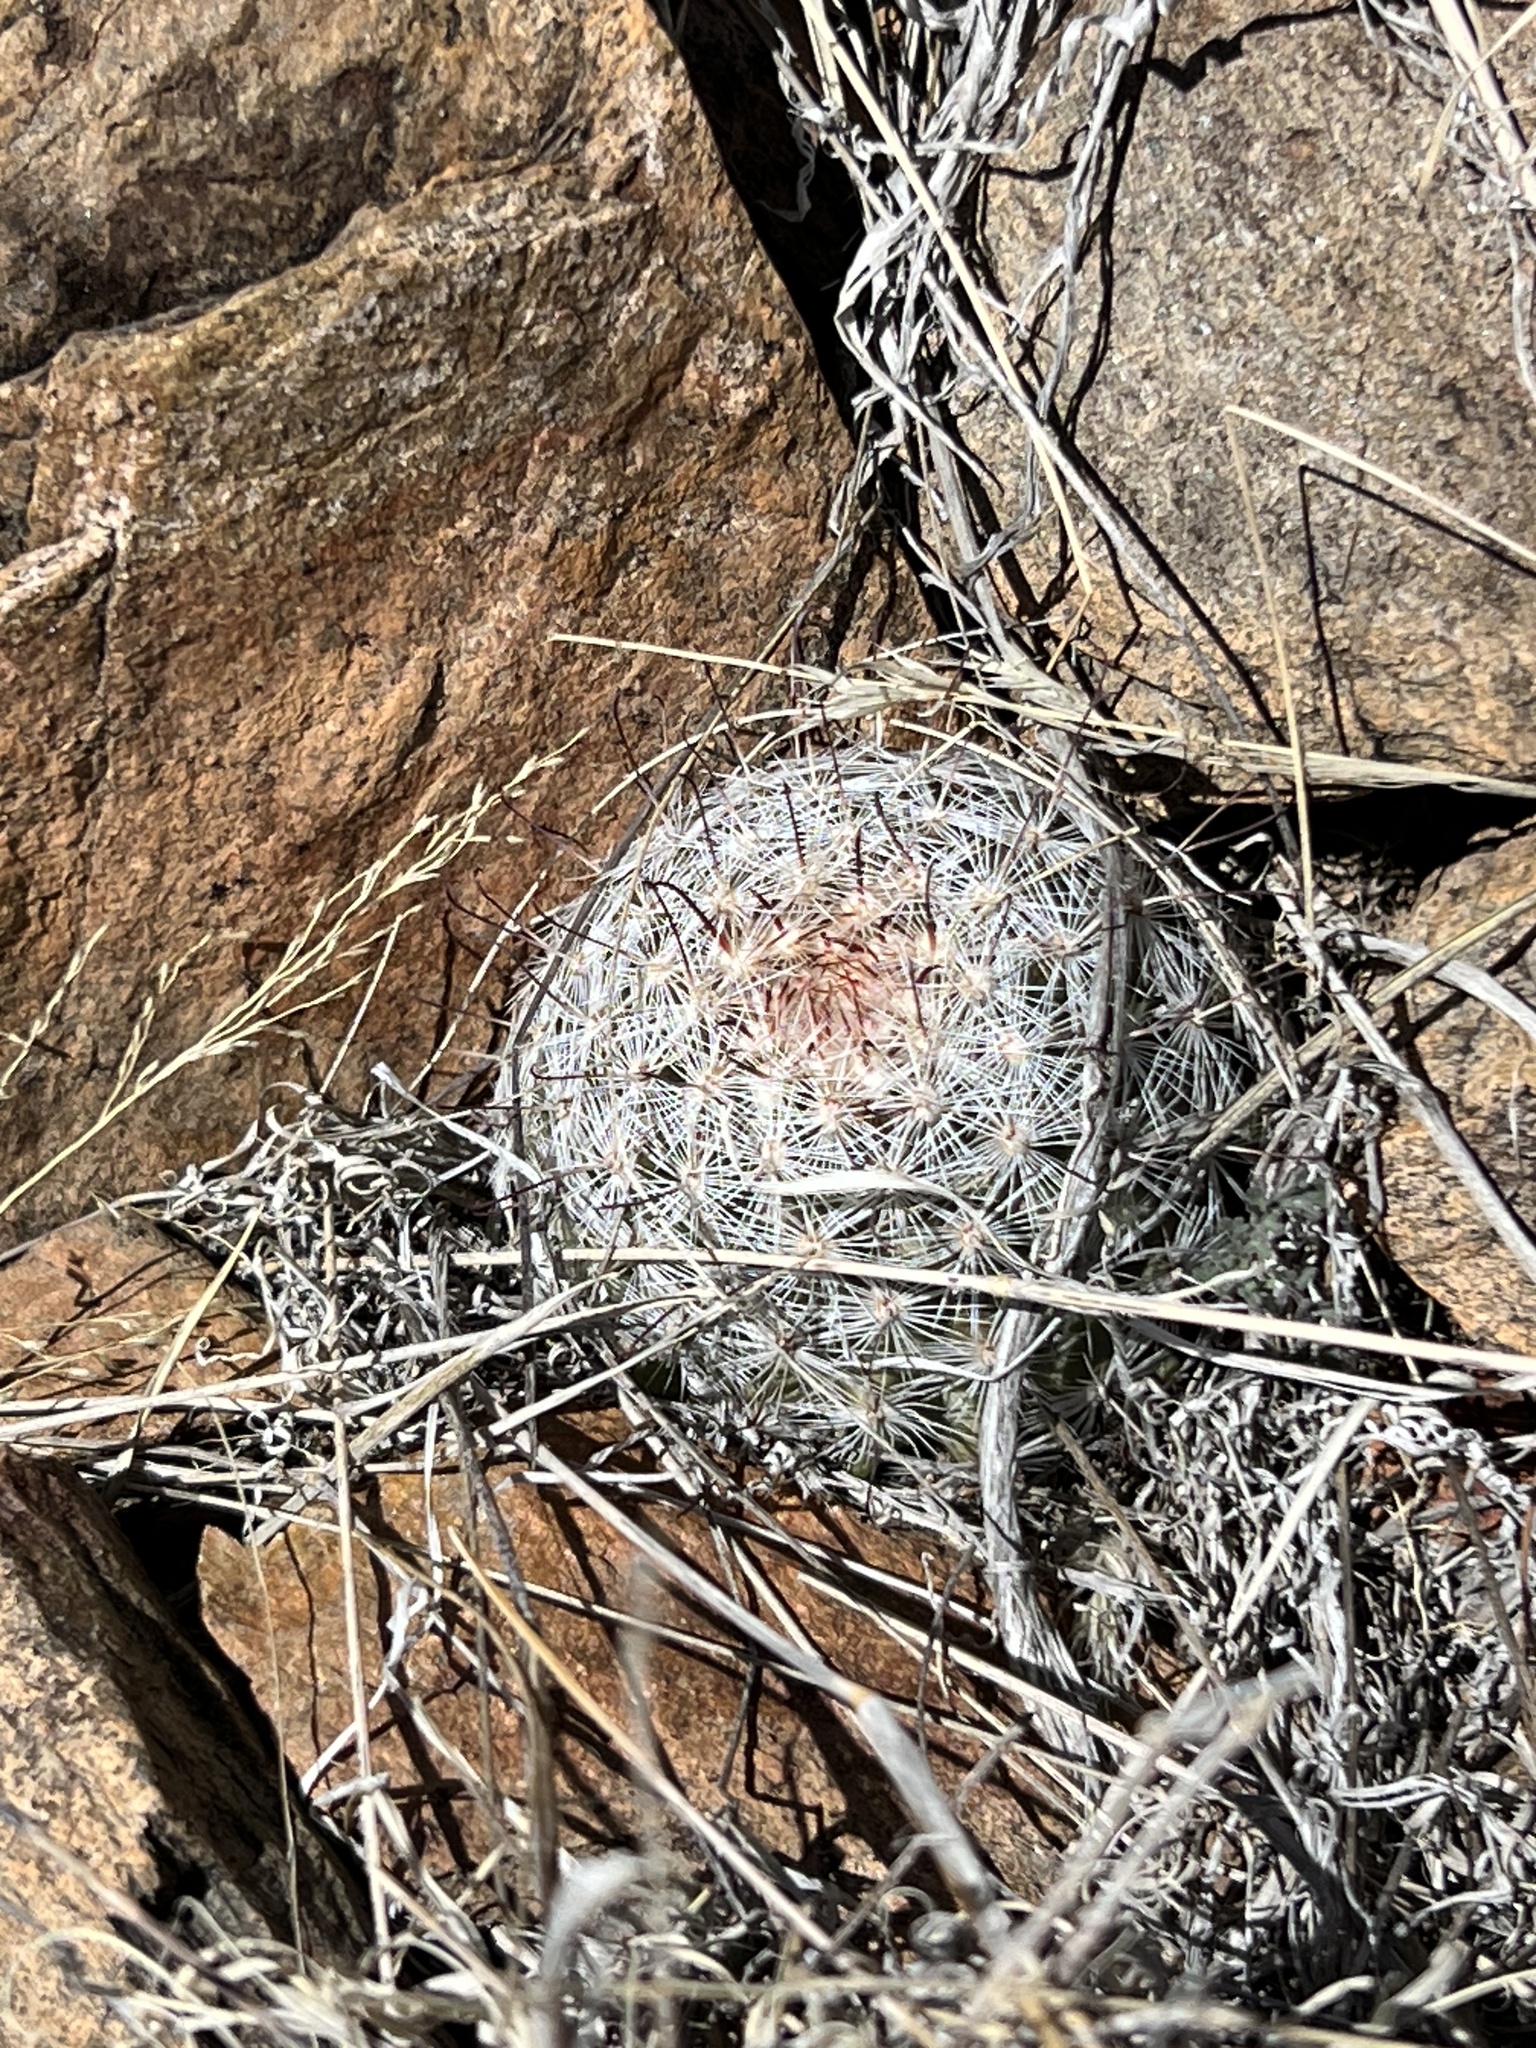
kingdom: Plantae
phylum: Tracheophyta
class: Magnoliopsida
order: Caryophyllales
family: Cactaceae
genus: Cochemiea
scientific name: Cochemiea grahamii
